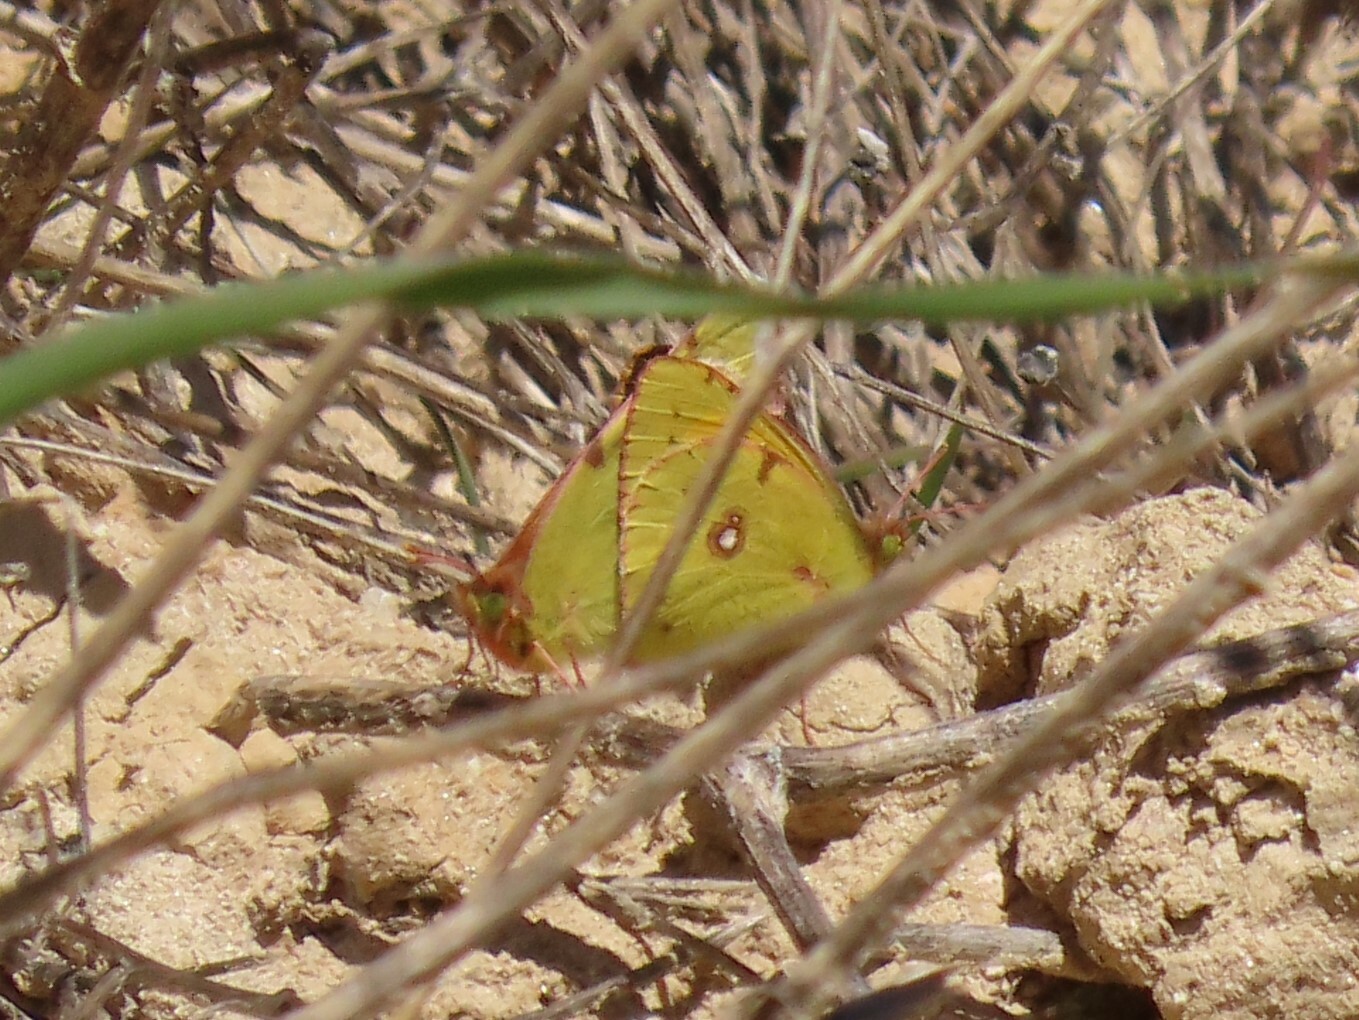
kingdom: Animalia
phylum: Arthropoda
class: Insecta
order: Lepidoptera
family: Pieridae
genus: Colias
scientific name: Colias croceus
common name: Clouded yellow
